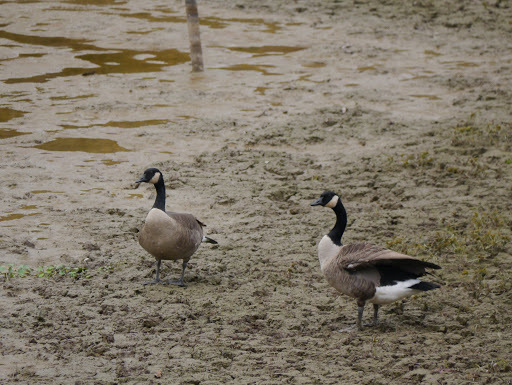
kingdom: Animalia
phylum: Chordata
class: Aves
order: Anseriformes
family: Anatidae
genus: Branta
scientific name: Branta canadensis
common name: Canada goose
